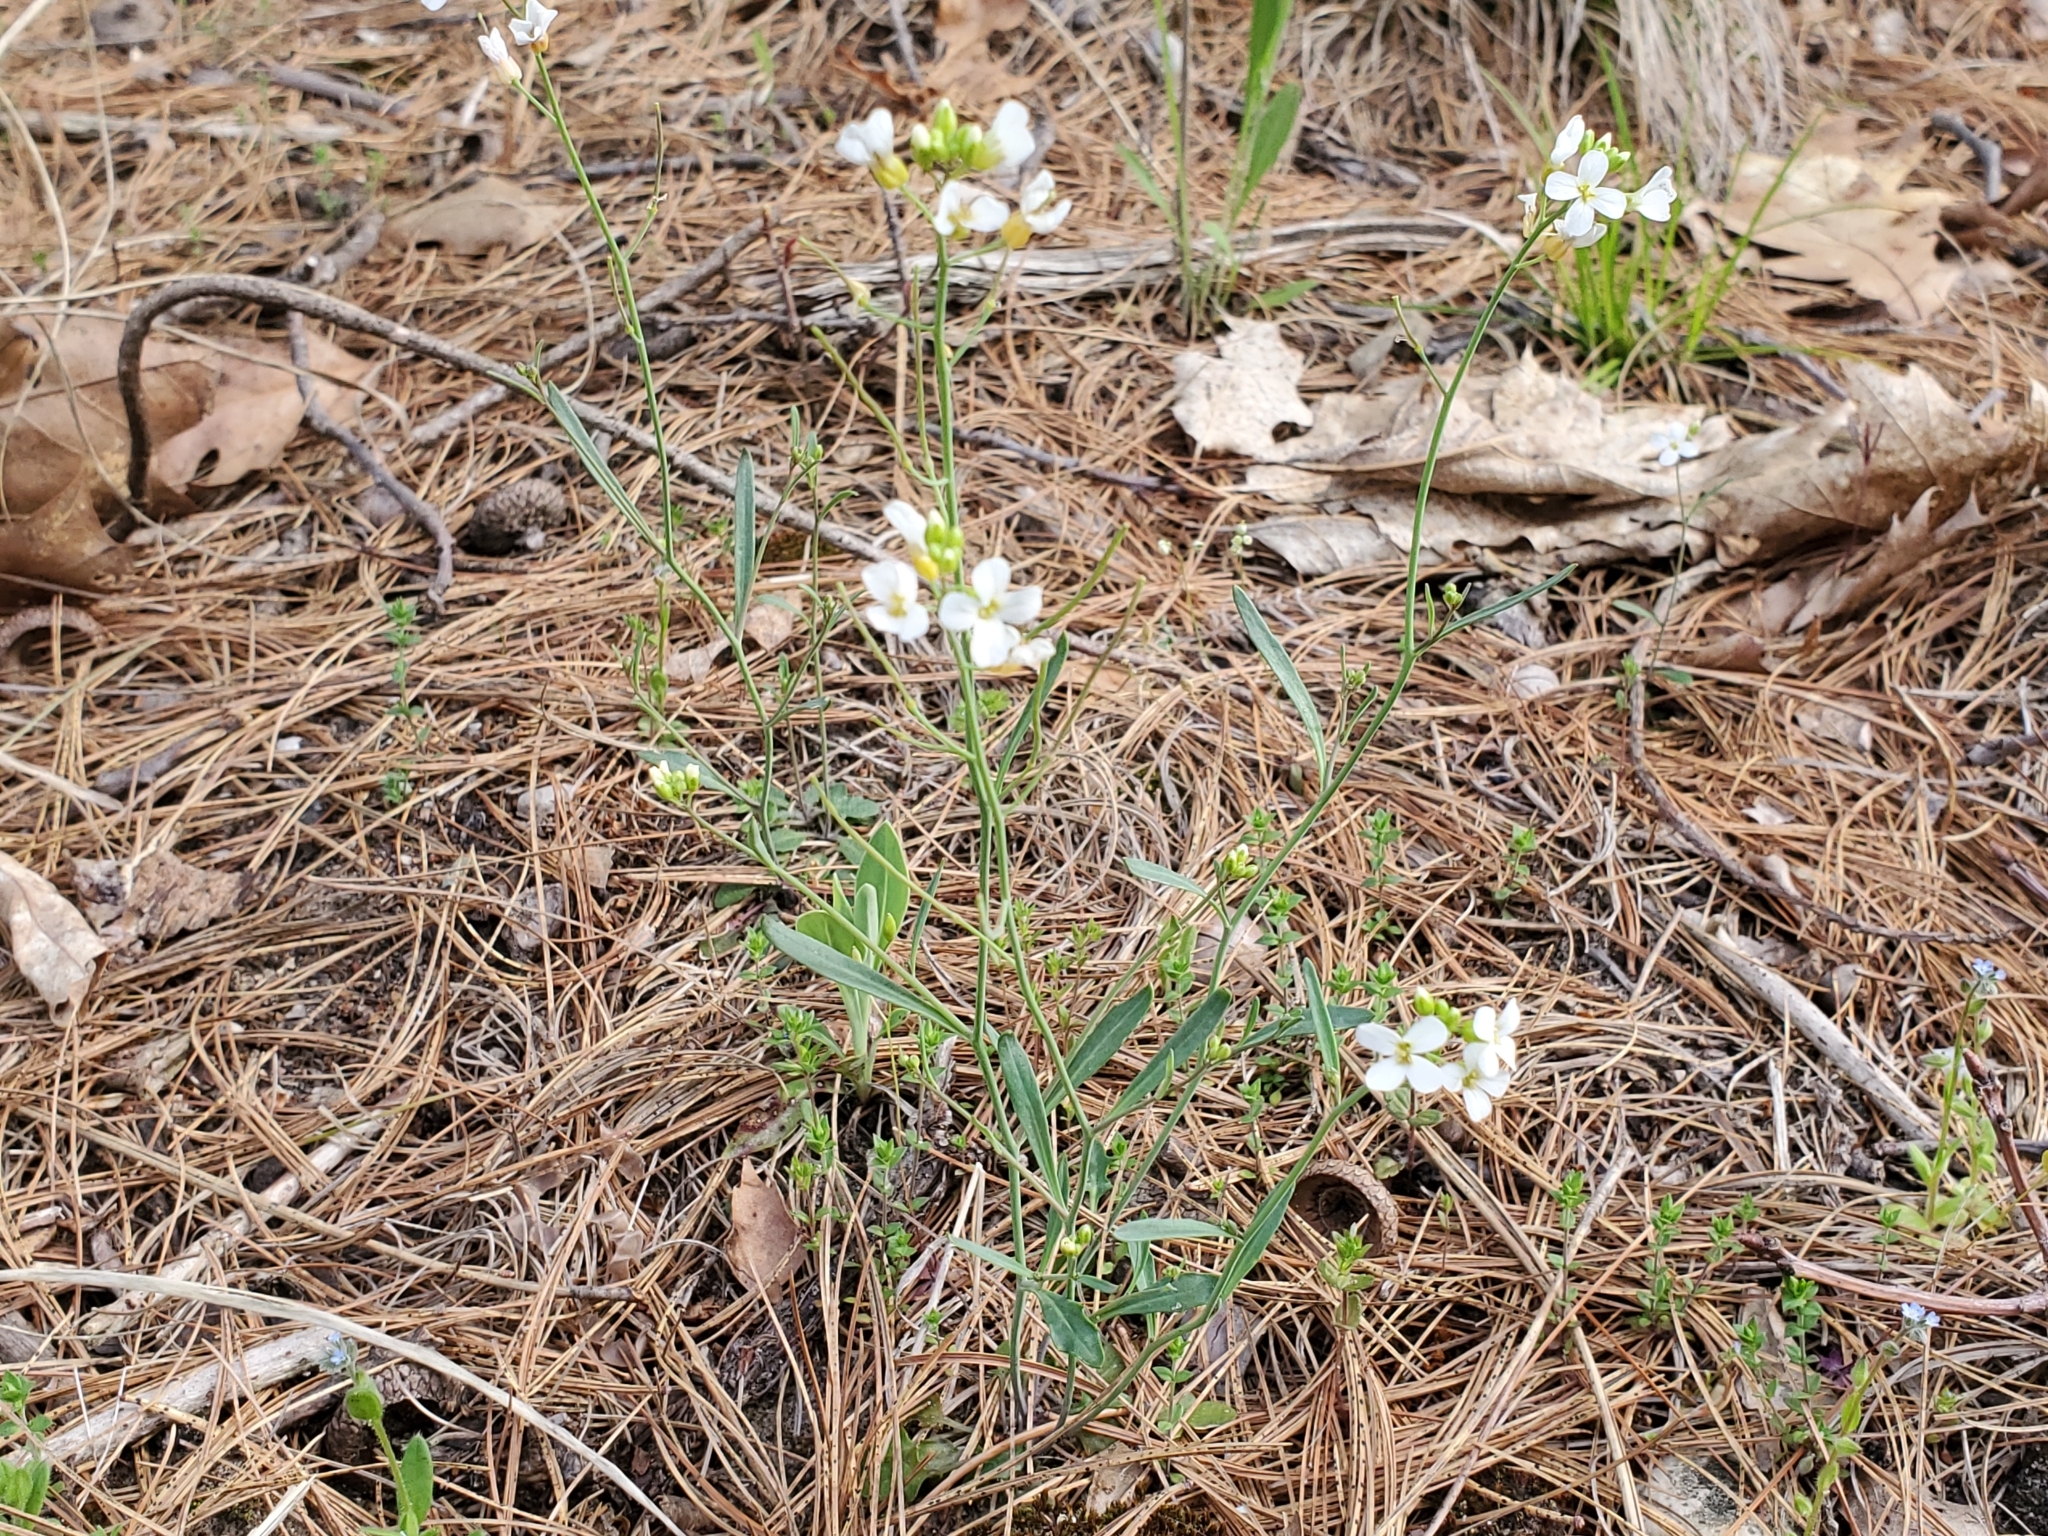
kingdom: Plantae
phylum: Tracheophyta
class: Magnoliopsida
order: Brassicales
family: Brassicaceae
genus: Arabidopsis
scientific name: Arabidopsis lyrata
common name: Lyrate rockcress
